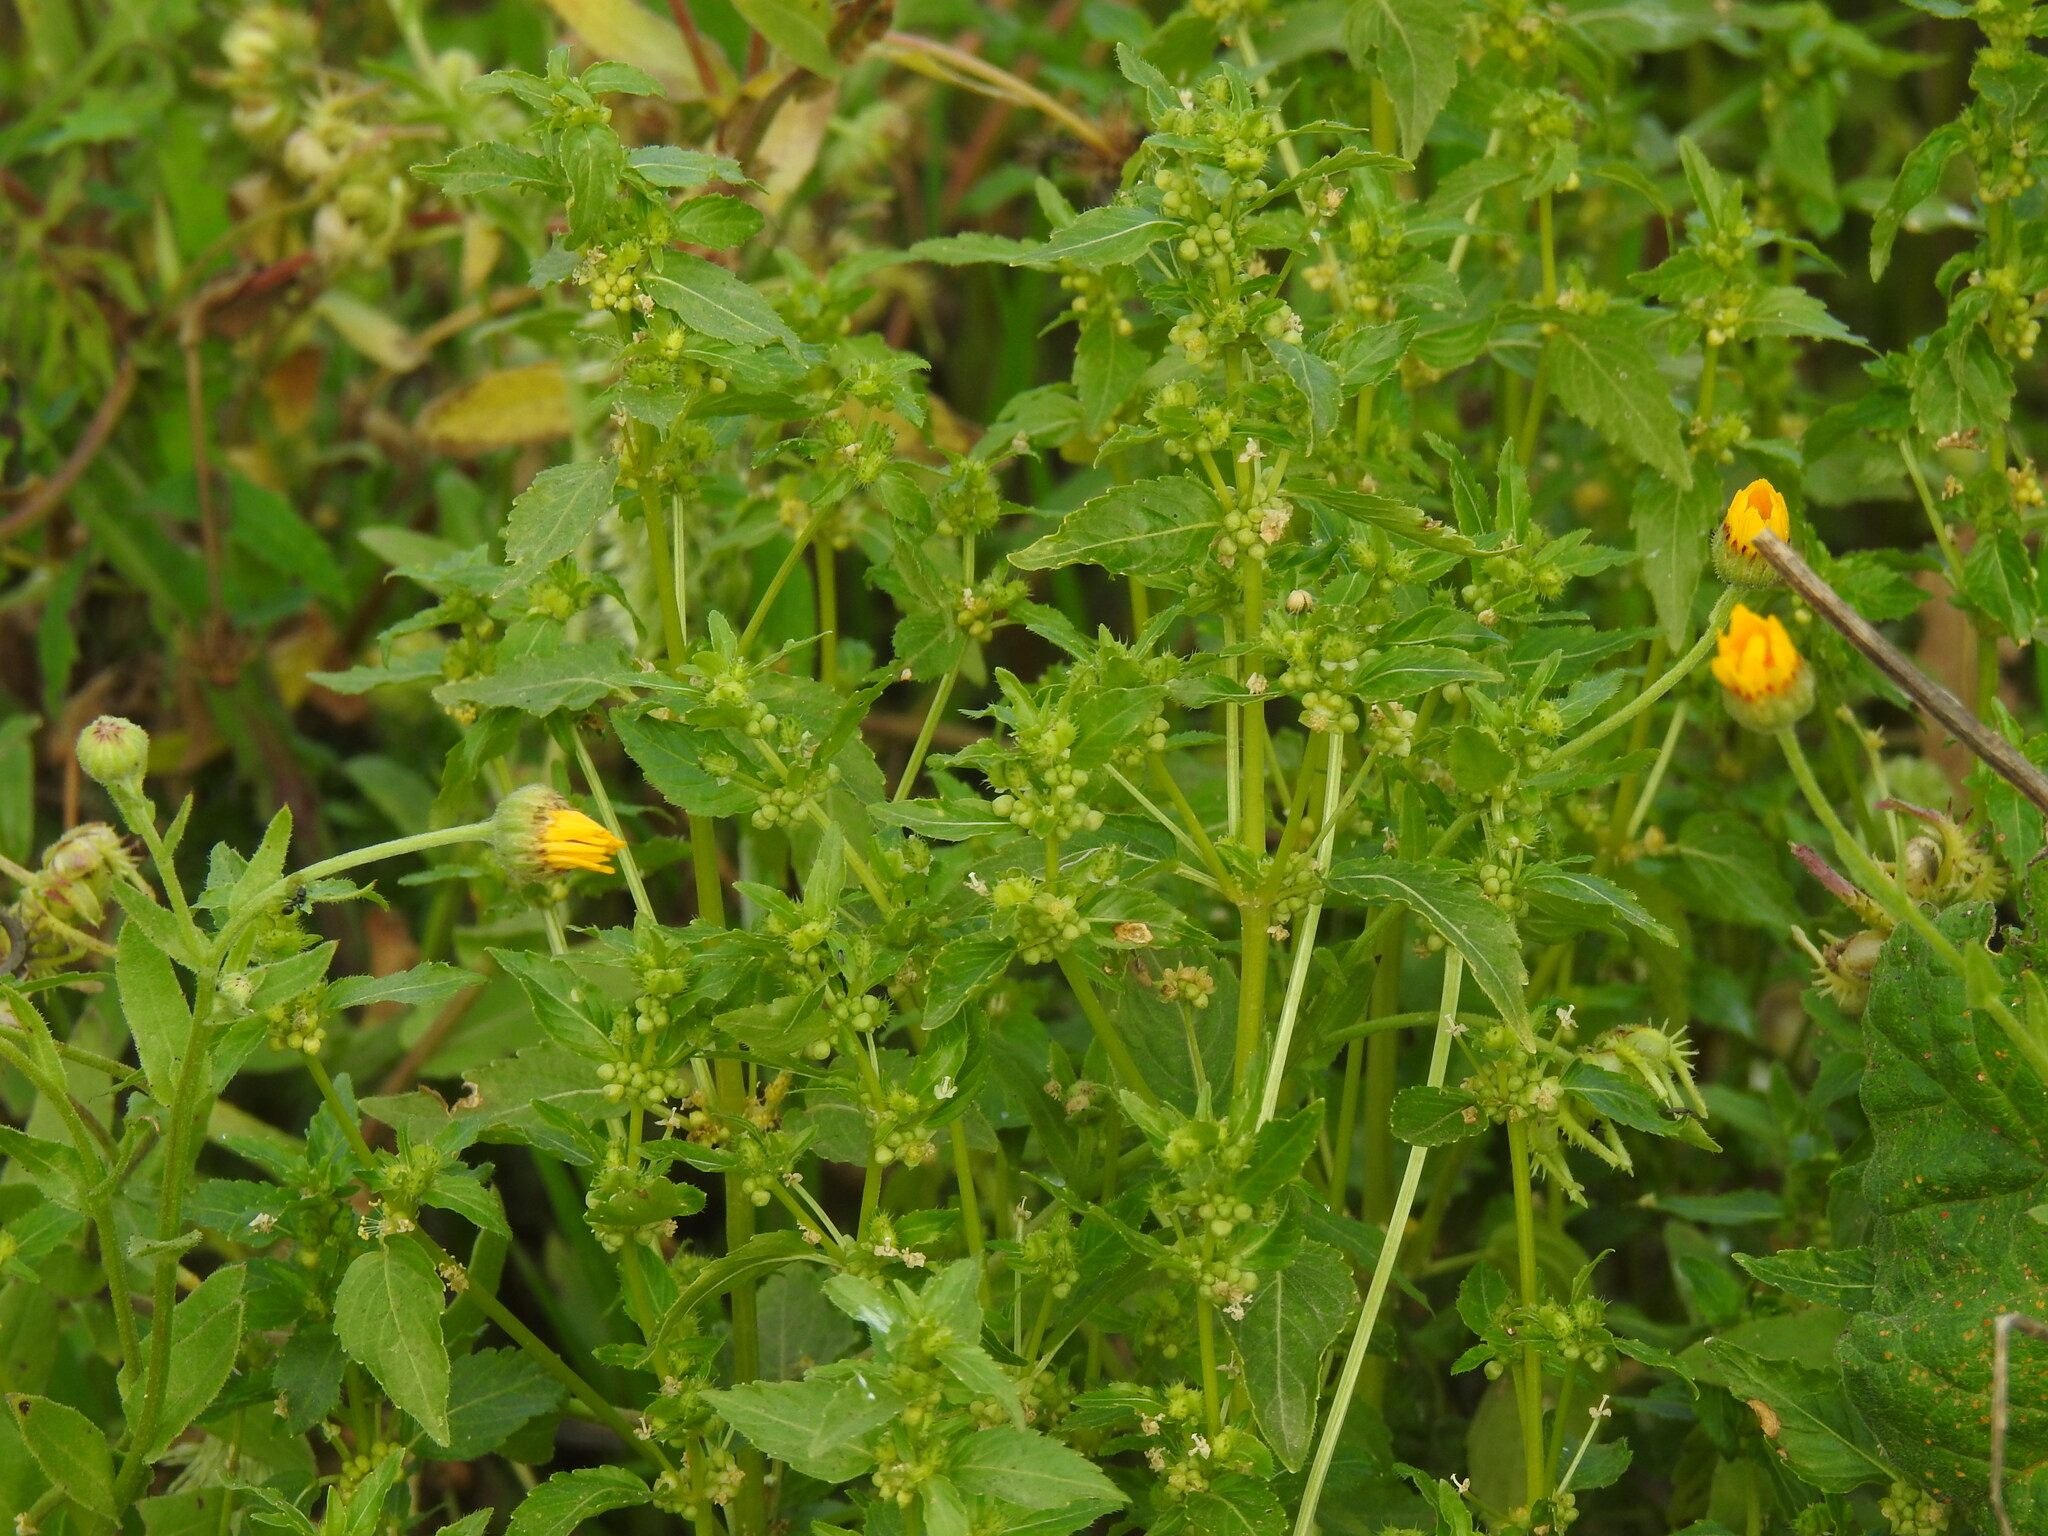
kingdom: Plantae
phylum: Tracheophyta
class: Magnoliopsida
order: Malpighiales
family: Euphorbiaceae
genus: Mercurialis
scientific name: Mercurialis annua
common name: Annual mercury
